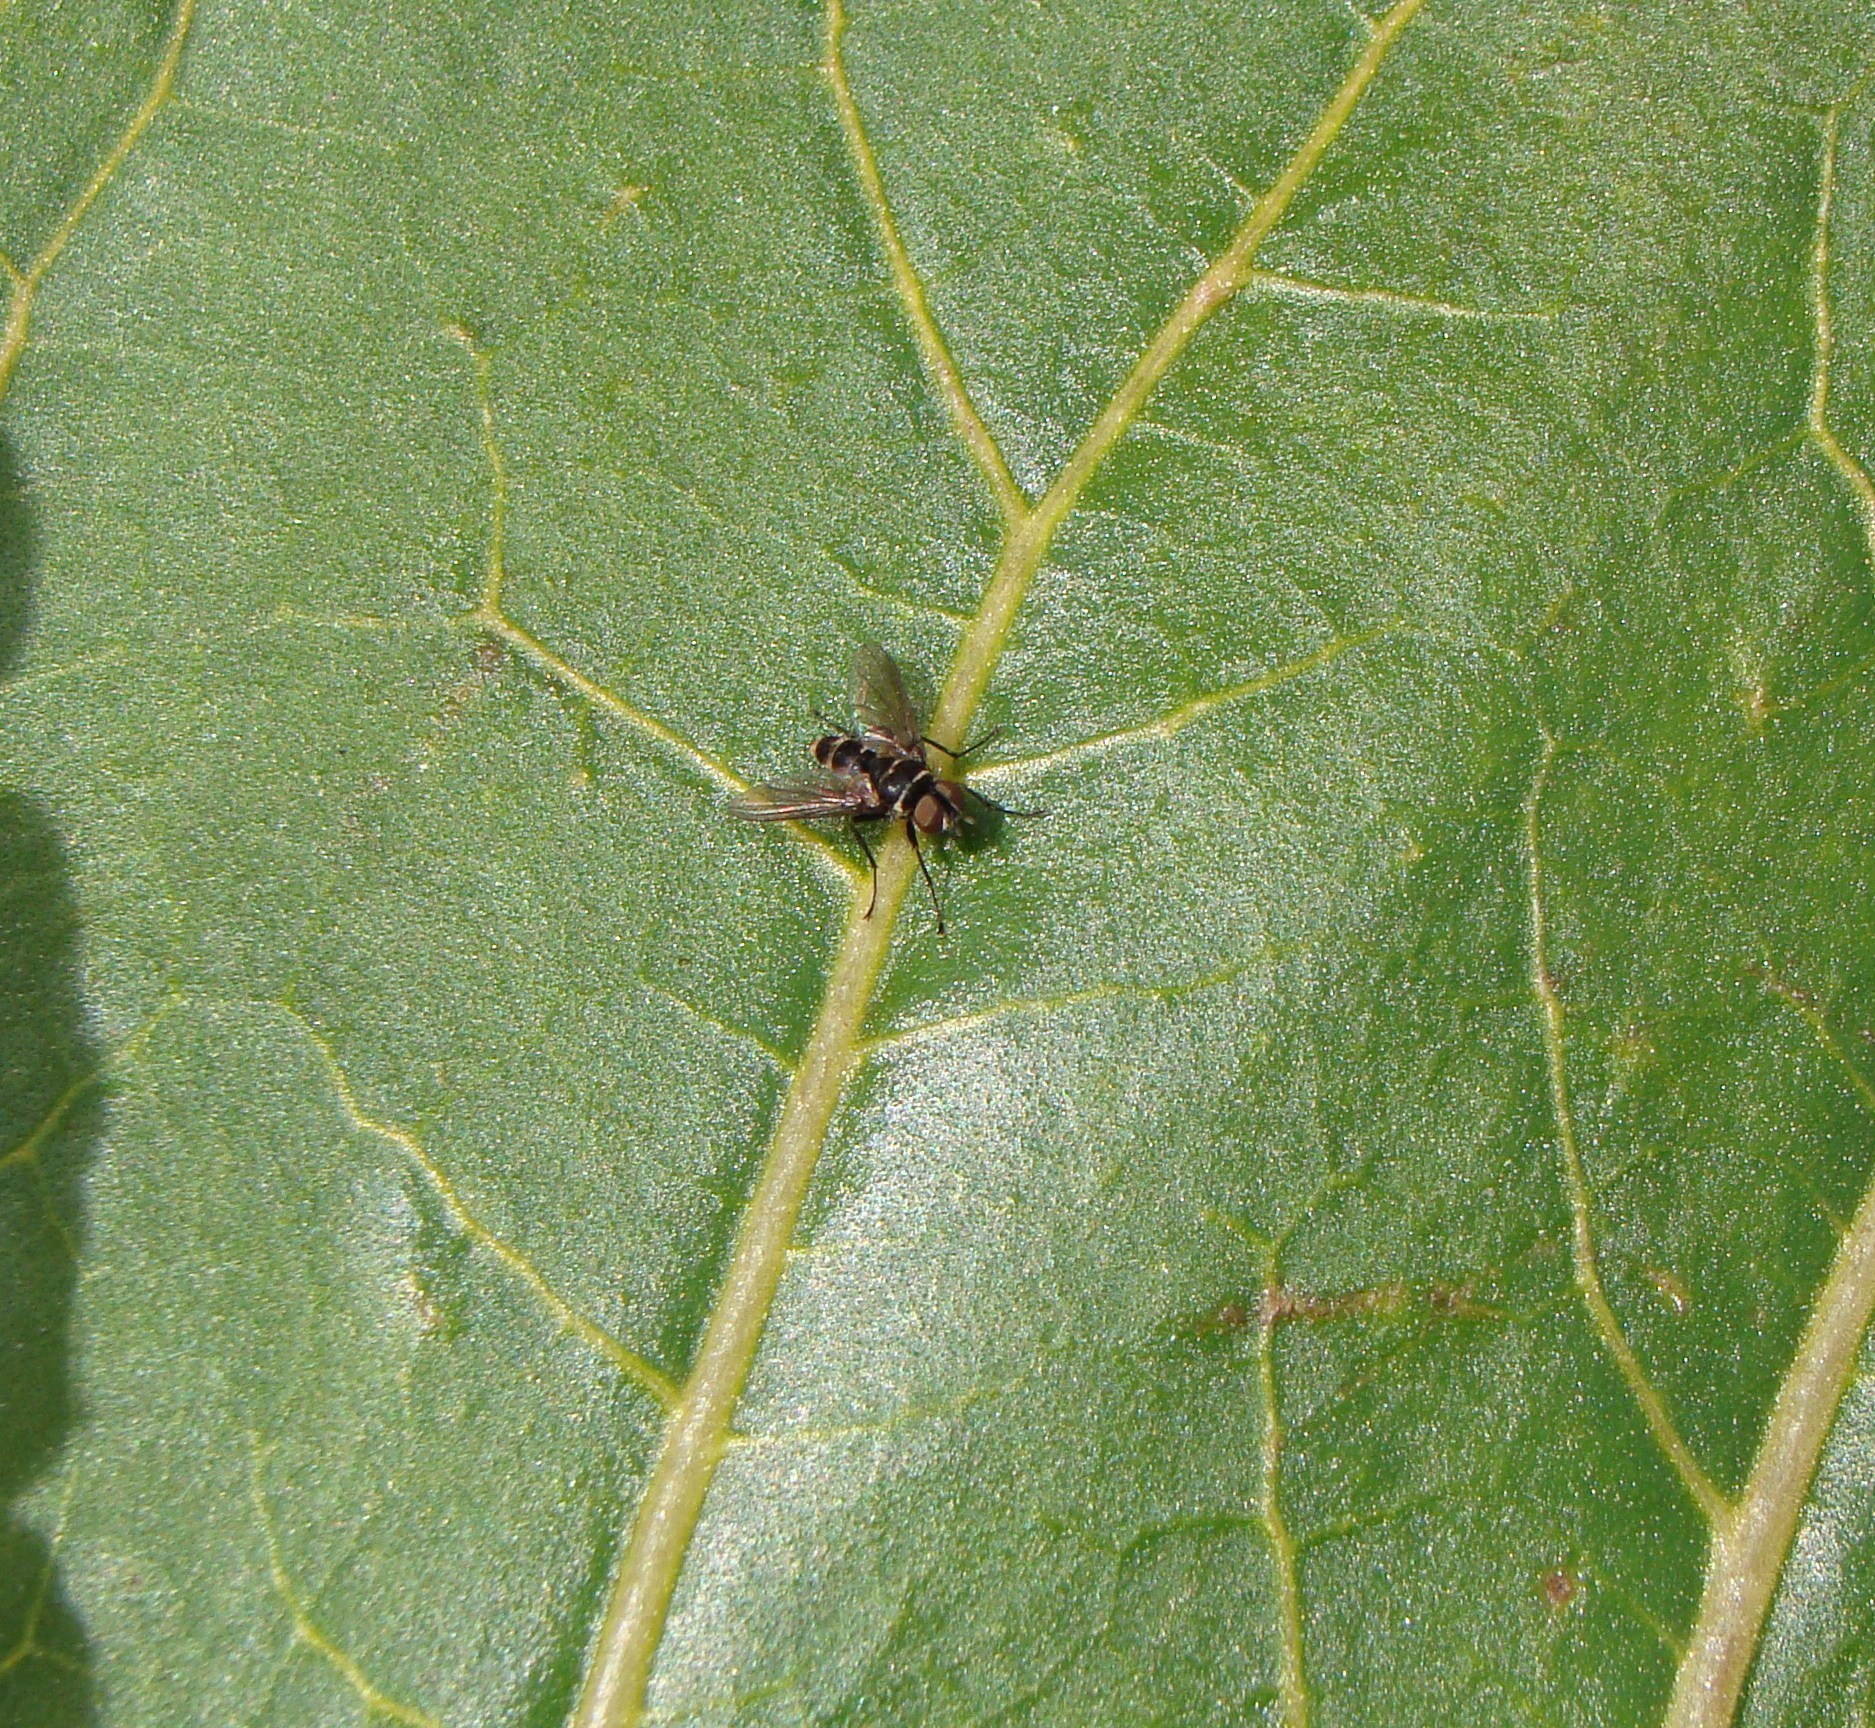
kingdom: Animalia
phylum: Arthropoda
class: Insecta
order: Diptera
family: Tachinidae
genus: Trigonospila
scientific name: Trigonospila brevifacies
